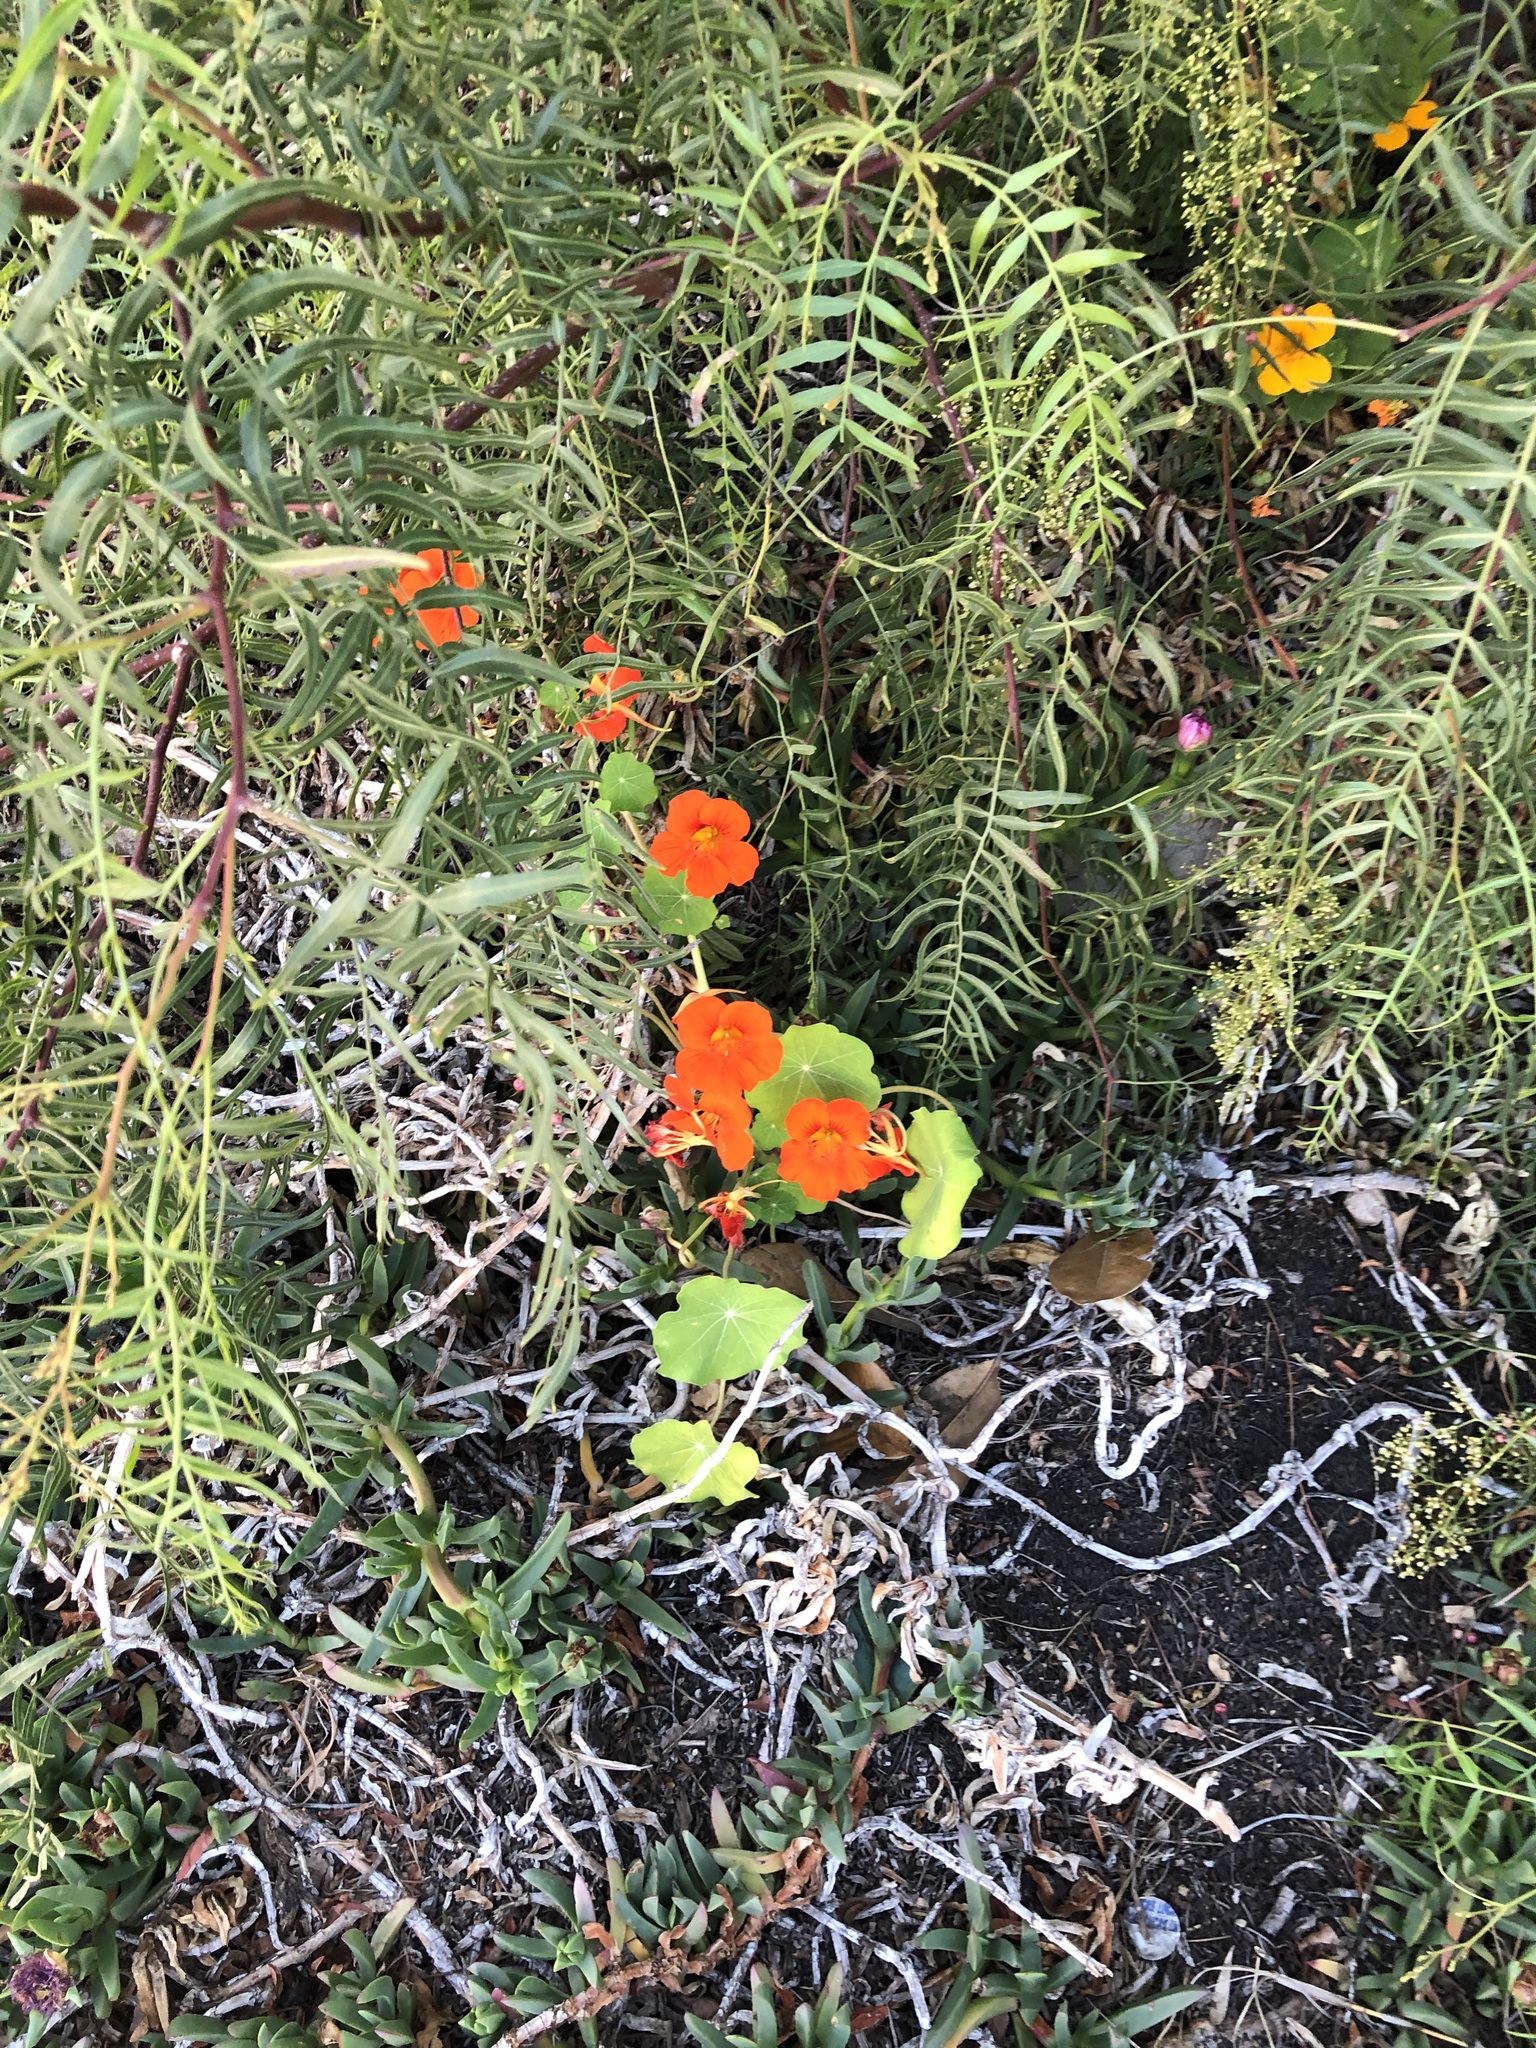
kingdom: Plantae
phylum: Tracheophyta
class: Magnoliopsida
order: Brassicales
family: Tropaeolaceae
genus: Tropaeolum
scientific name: Tropaeolum majus
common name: Nasturtium
